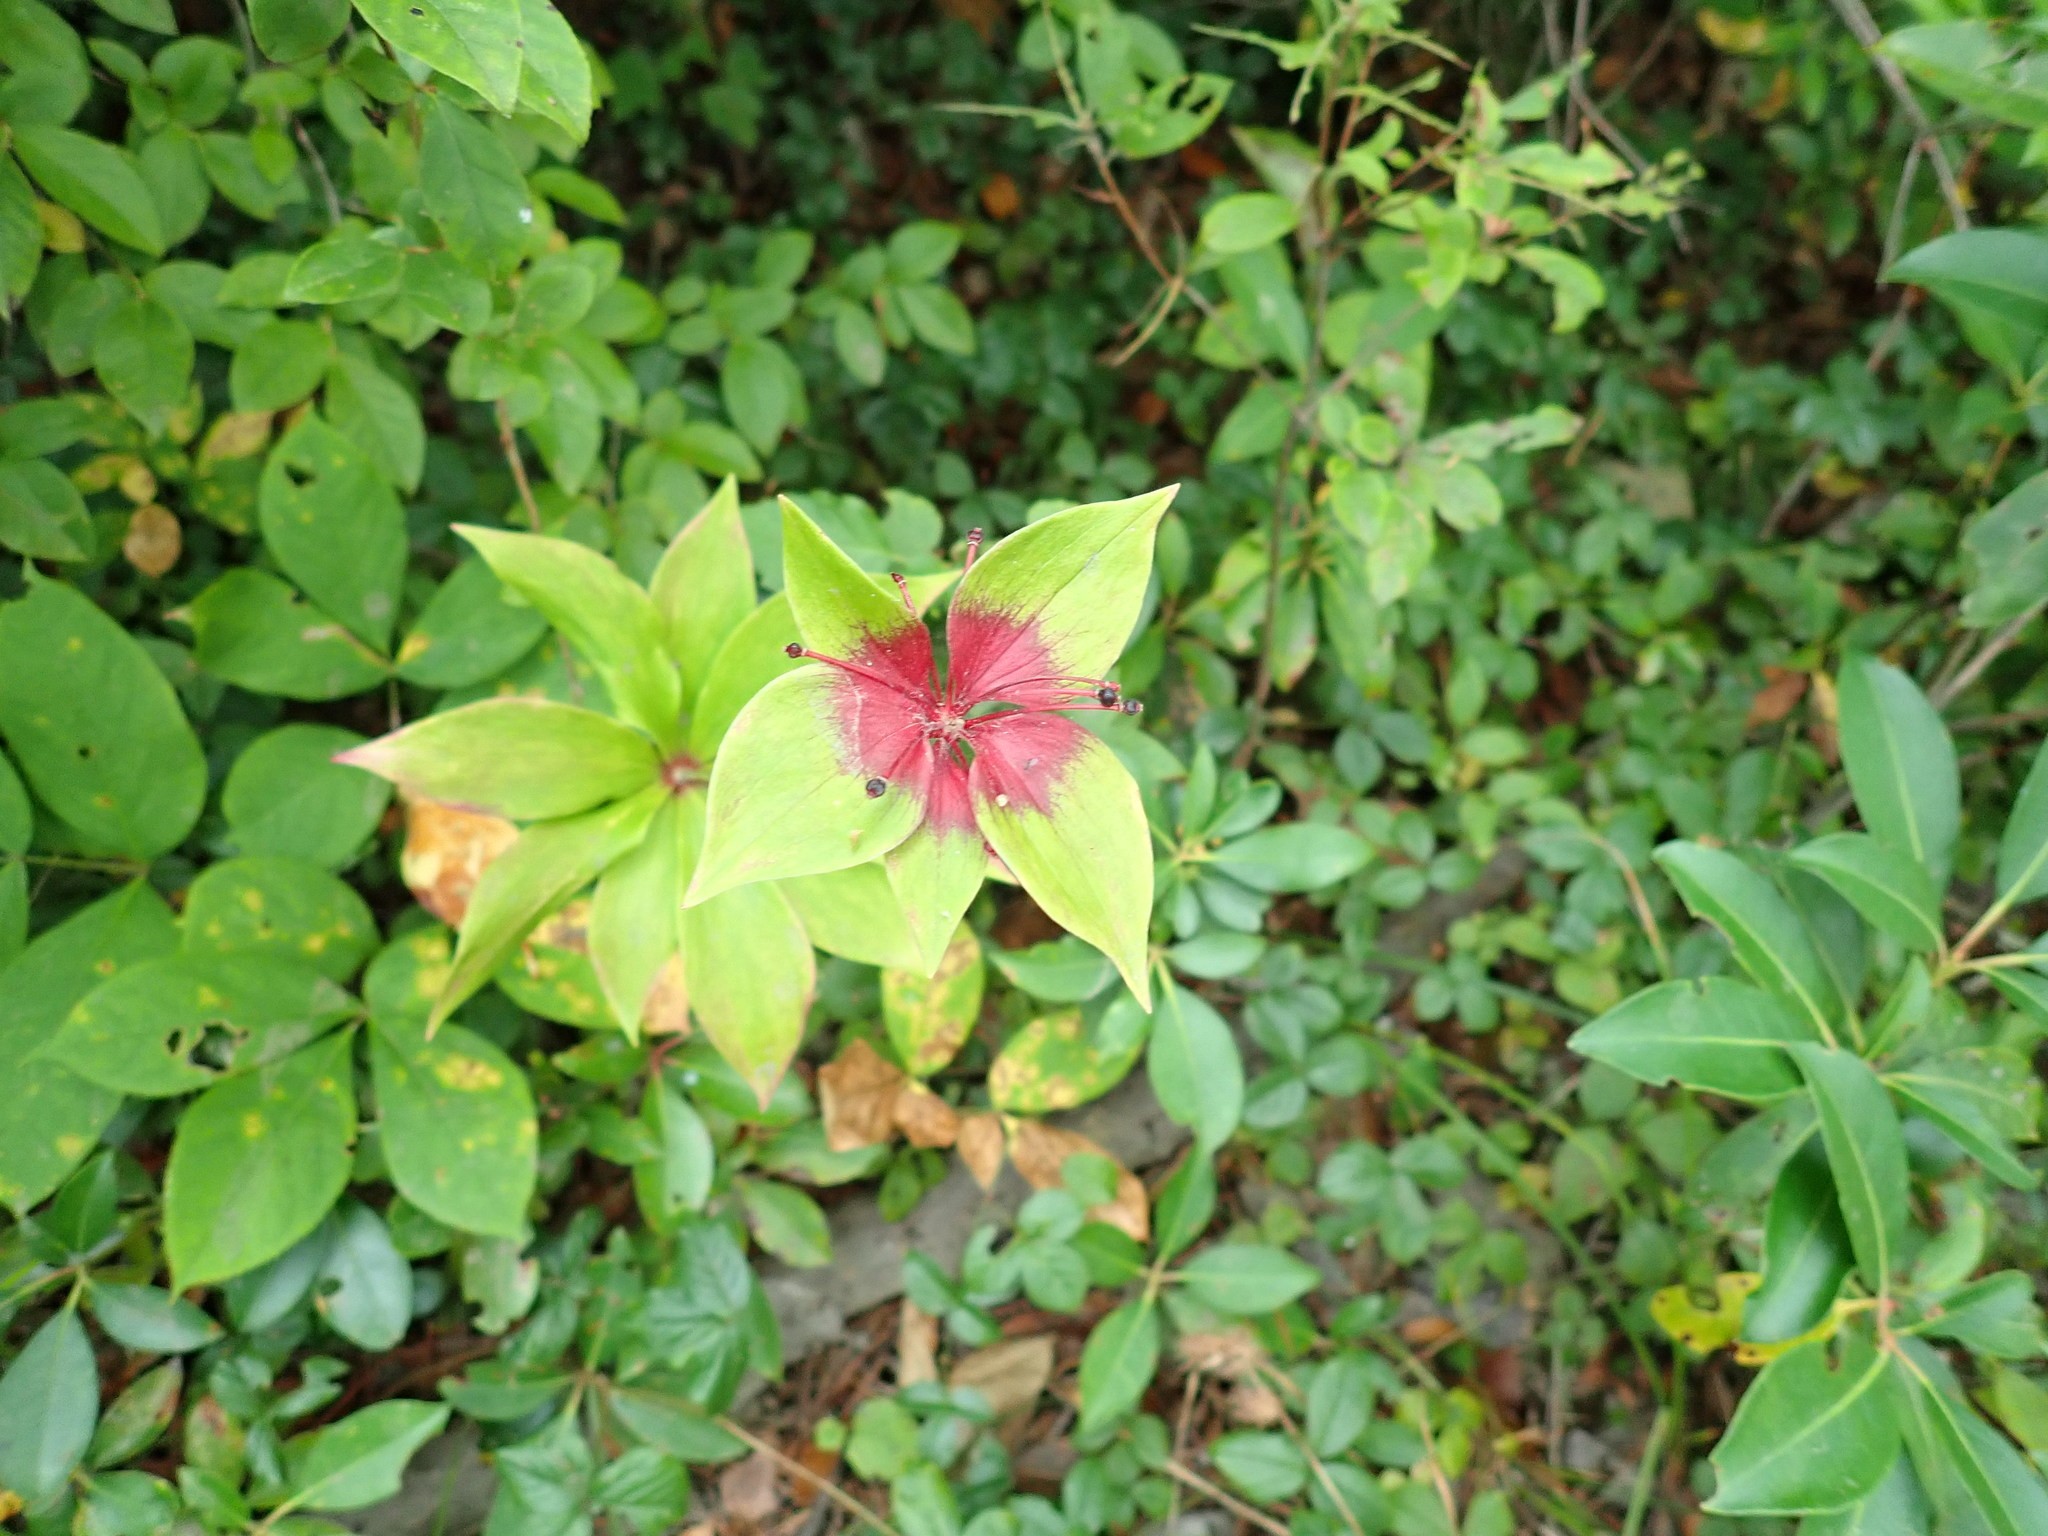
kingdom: Plantae
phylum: Tracheophyta
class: Liliopsida
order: Liliales
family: Liliaceae
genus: Medeola
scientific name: Medeola virginiana
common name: Indian cucumber-root
